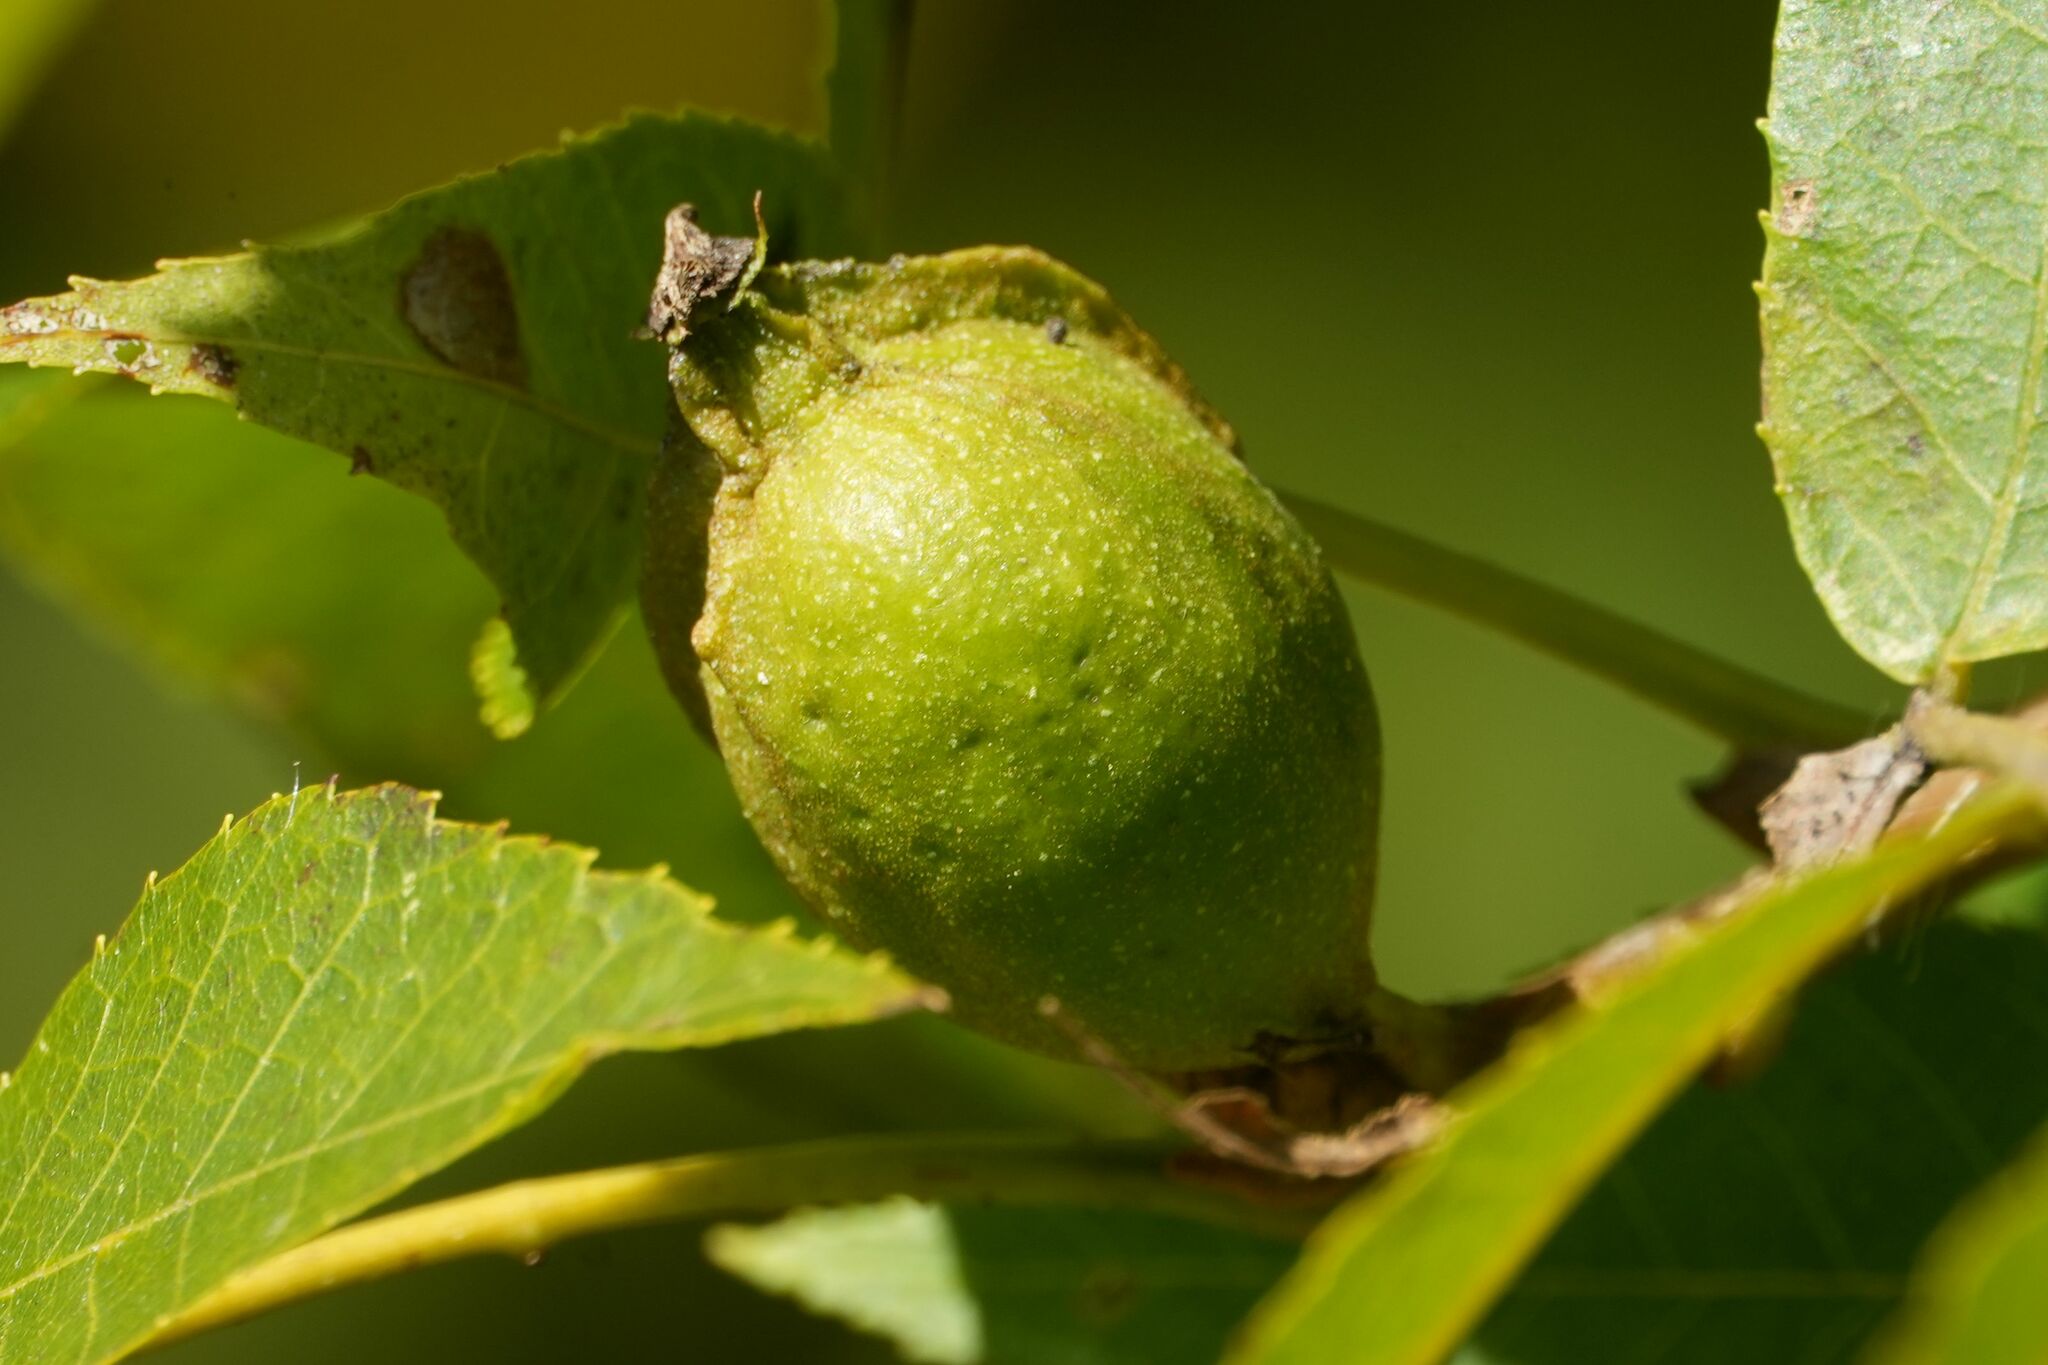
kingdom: Plantae
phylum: Tracheophyta
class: Magnoliopsida
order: Fagales
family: Juglandaceae
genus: Carya
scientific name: Carya cordiformis
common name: Bitternut hickory
